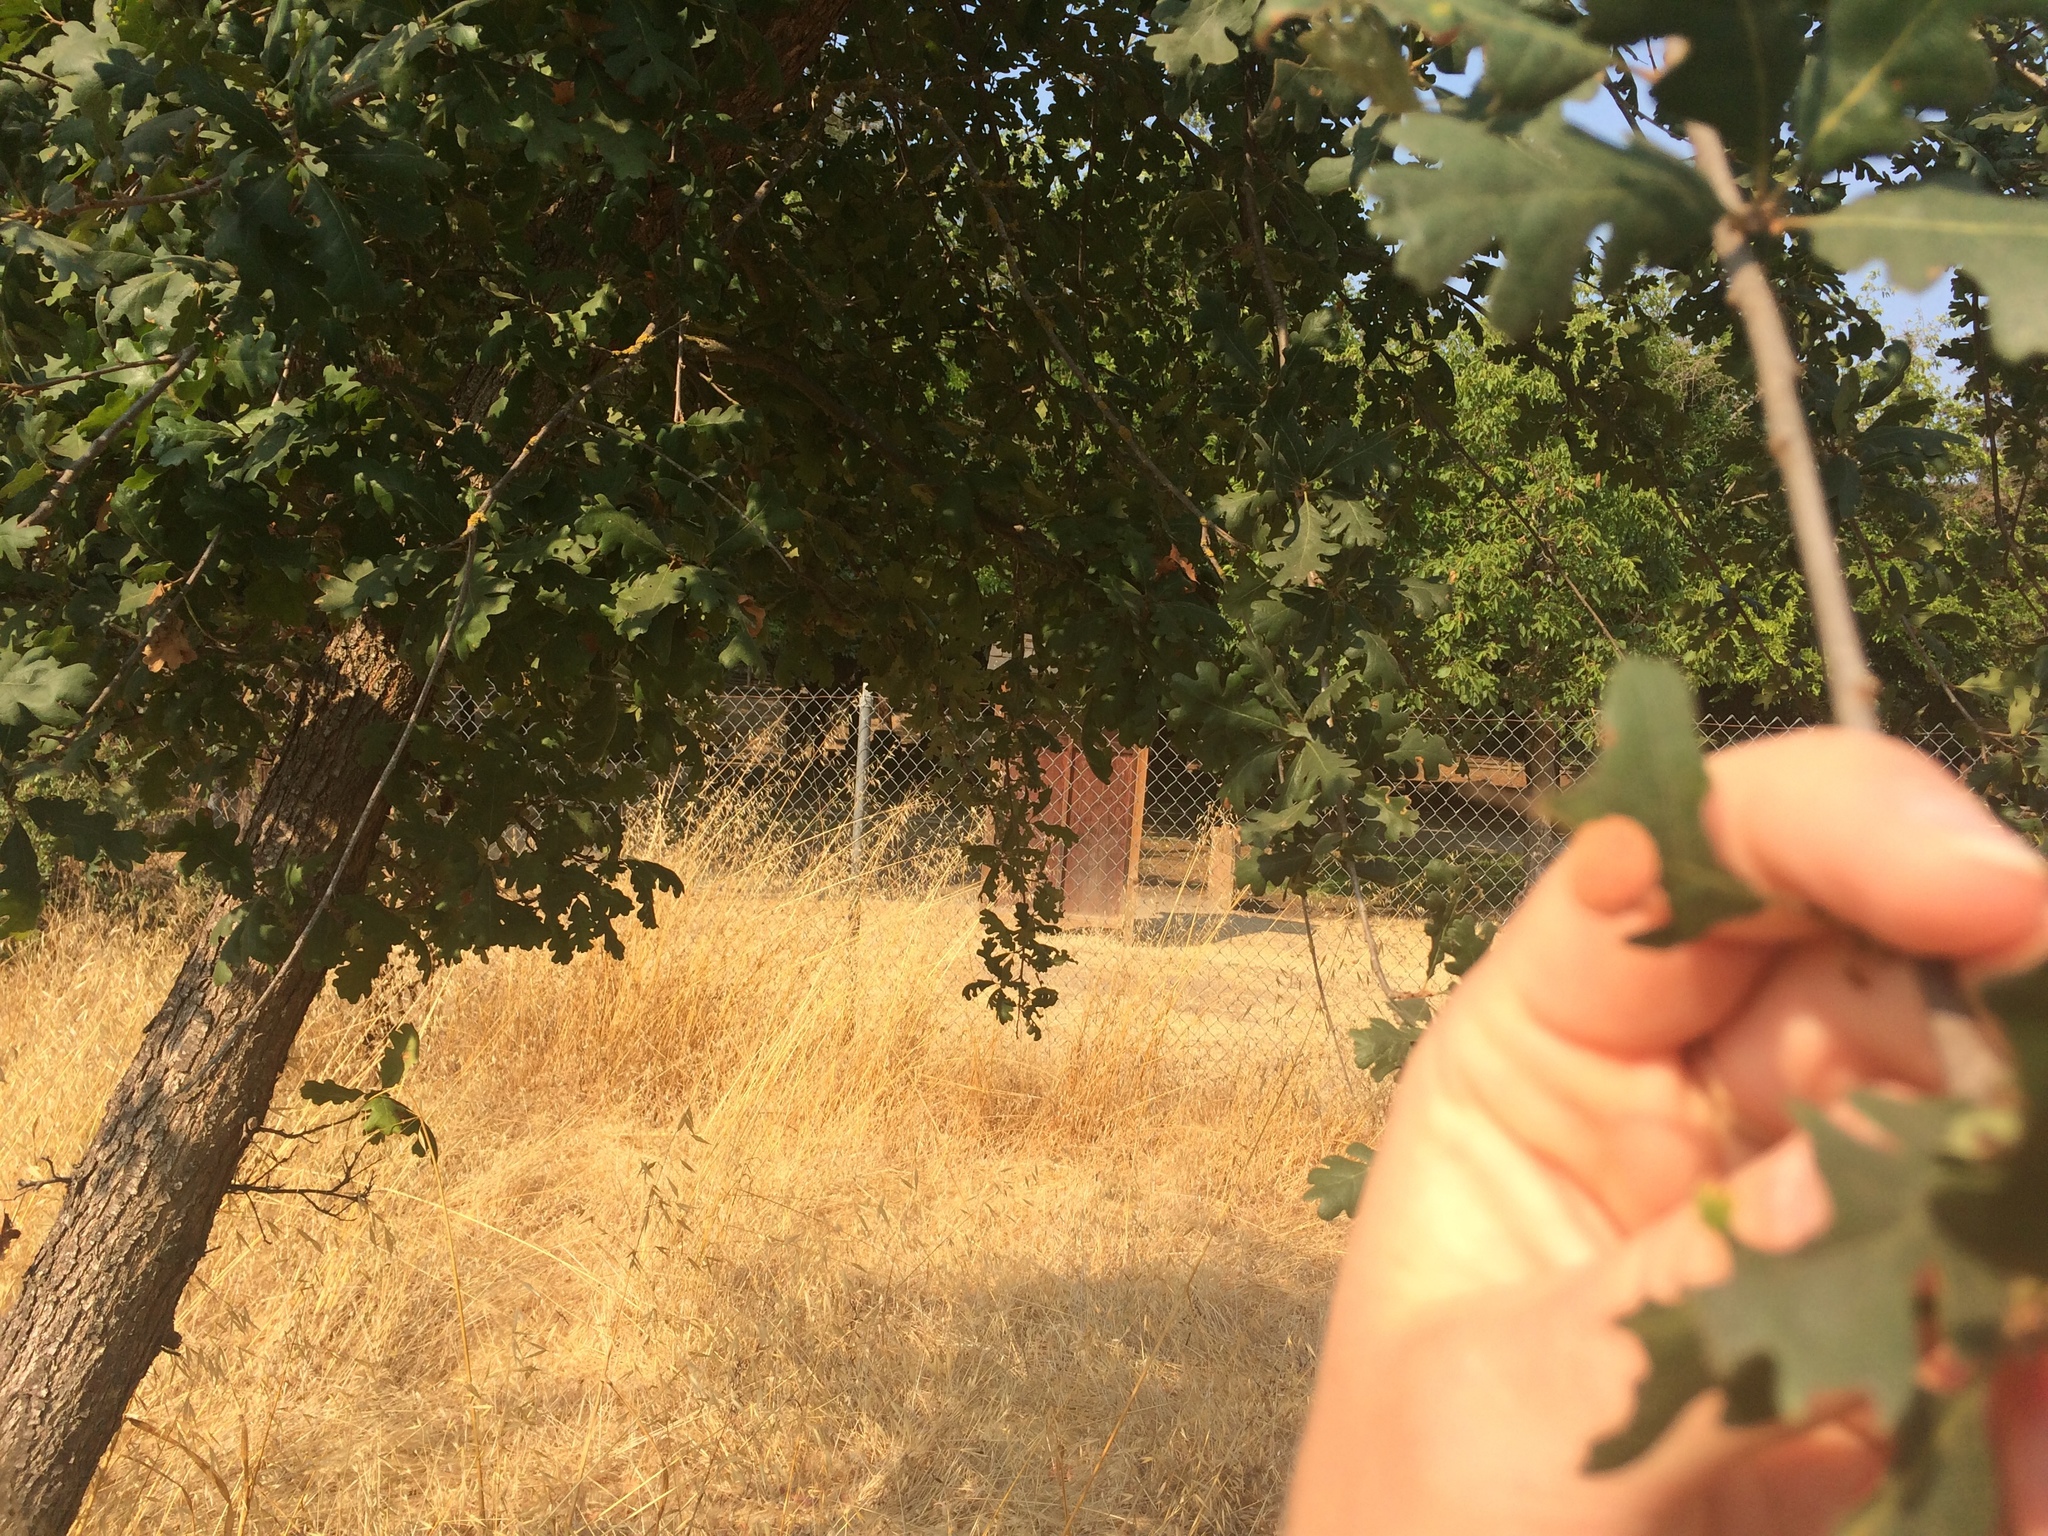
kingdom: Plantae
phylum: Tracheophyta
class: Magnoliopsida
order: Fagales
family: Fagaceae
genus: Quercus
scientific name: Quercus lobata
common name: Valley oak
